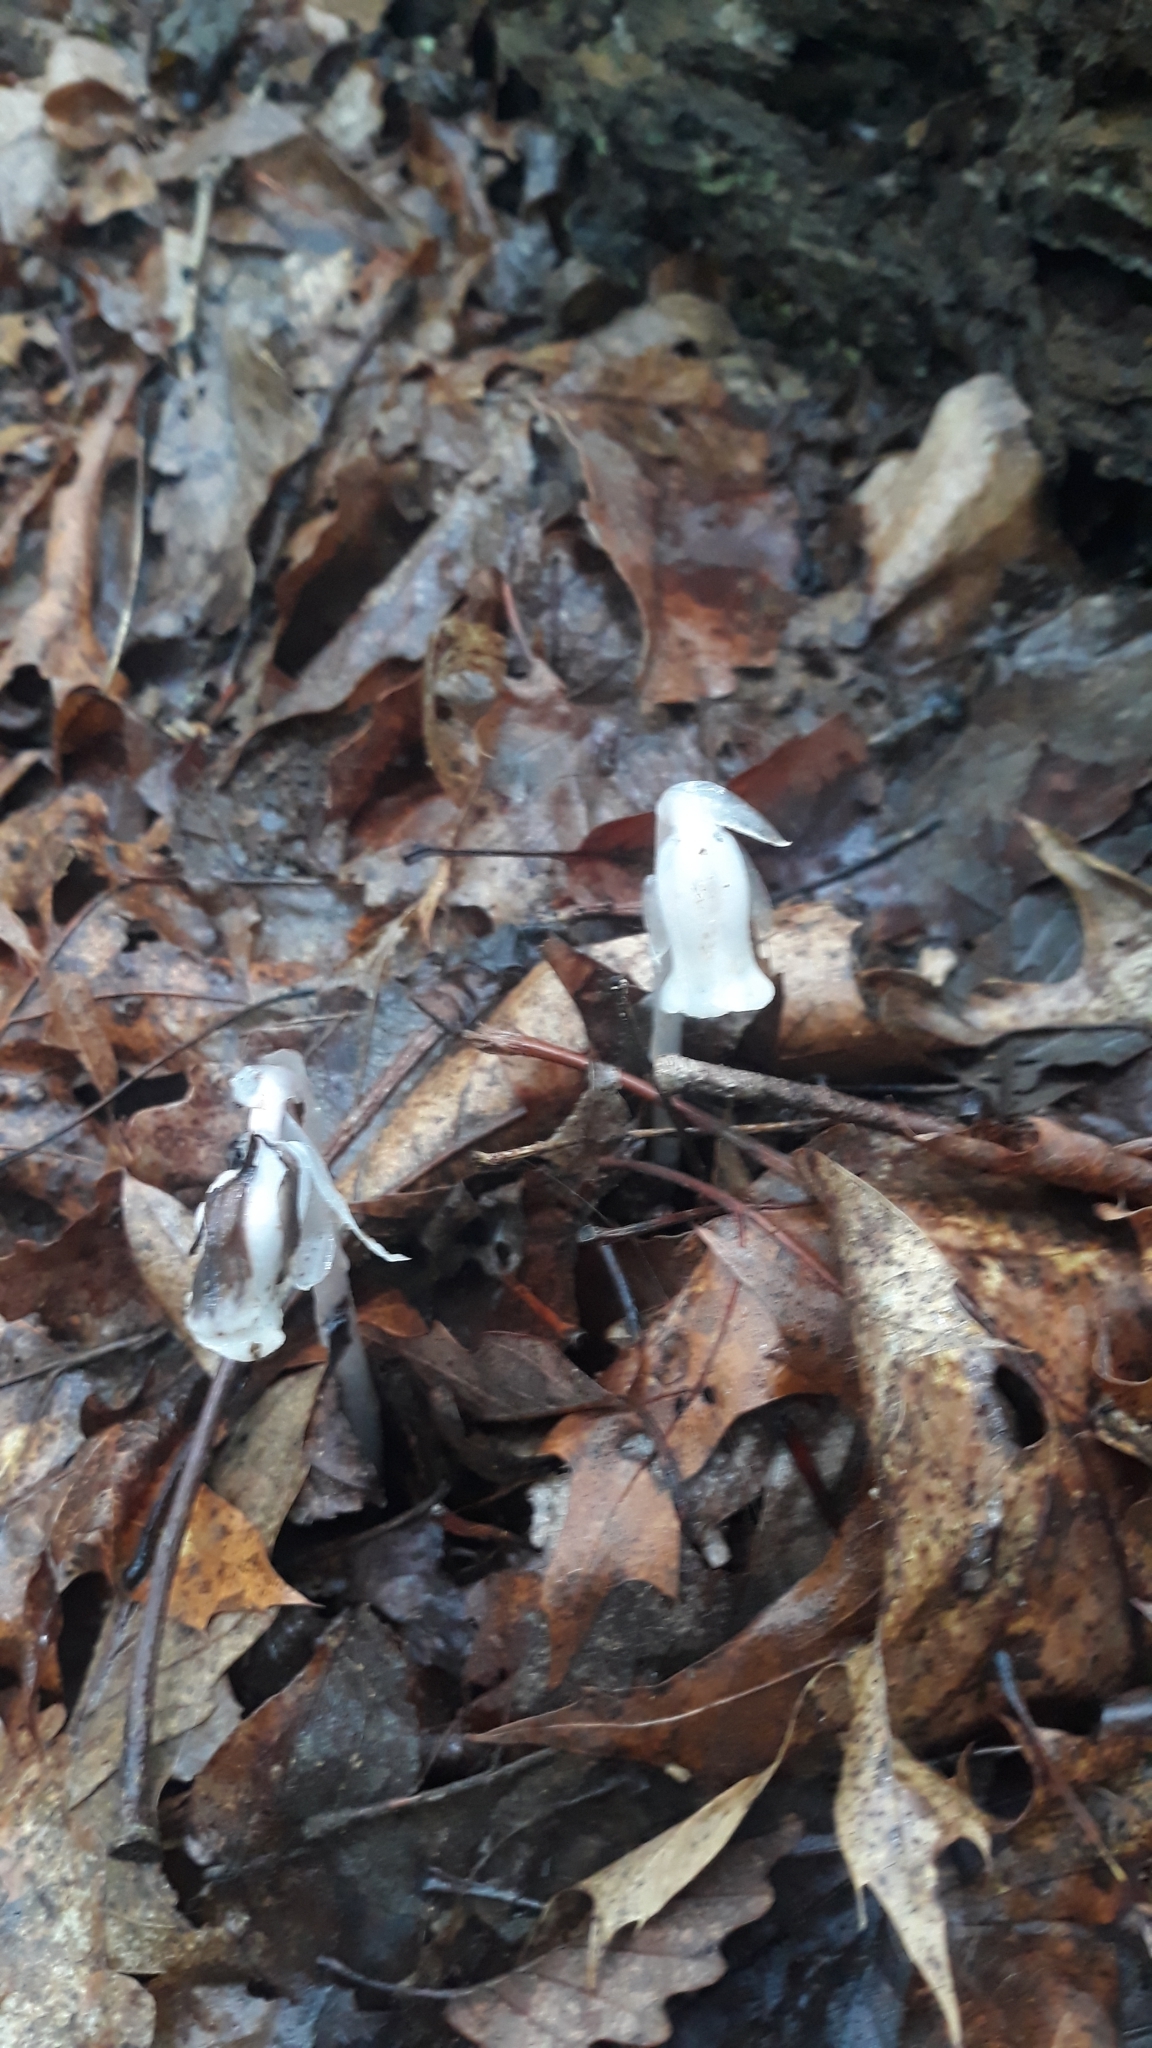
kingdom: Plantae
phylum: Tracheophyta
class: Magnoliopsida
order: Ericales
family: Ericaceae
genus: Monotropa
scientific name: Monotropa uniflora
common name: Convulsion root
